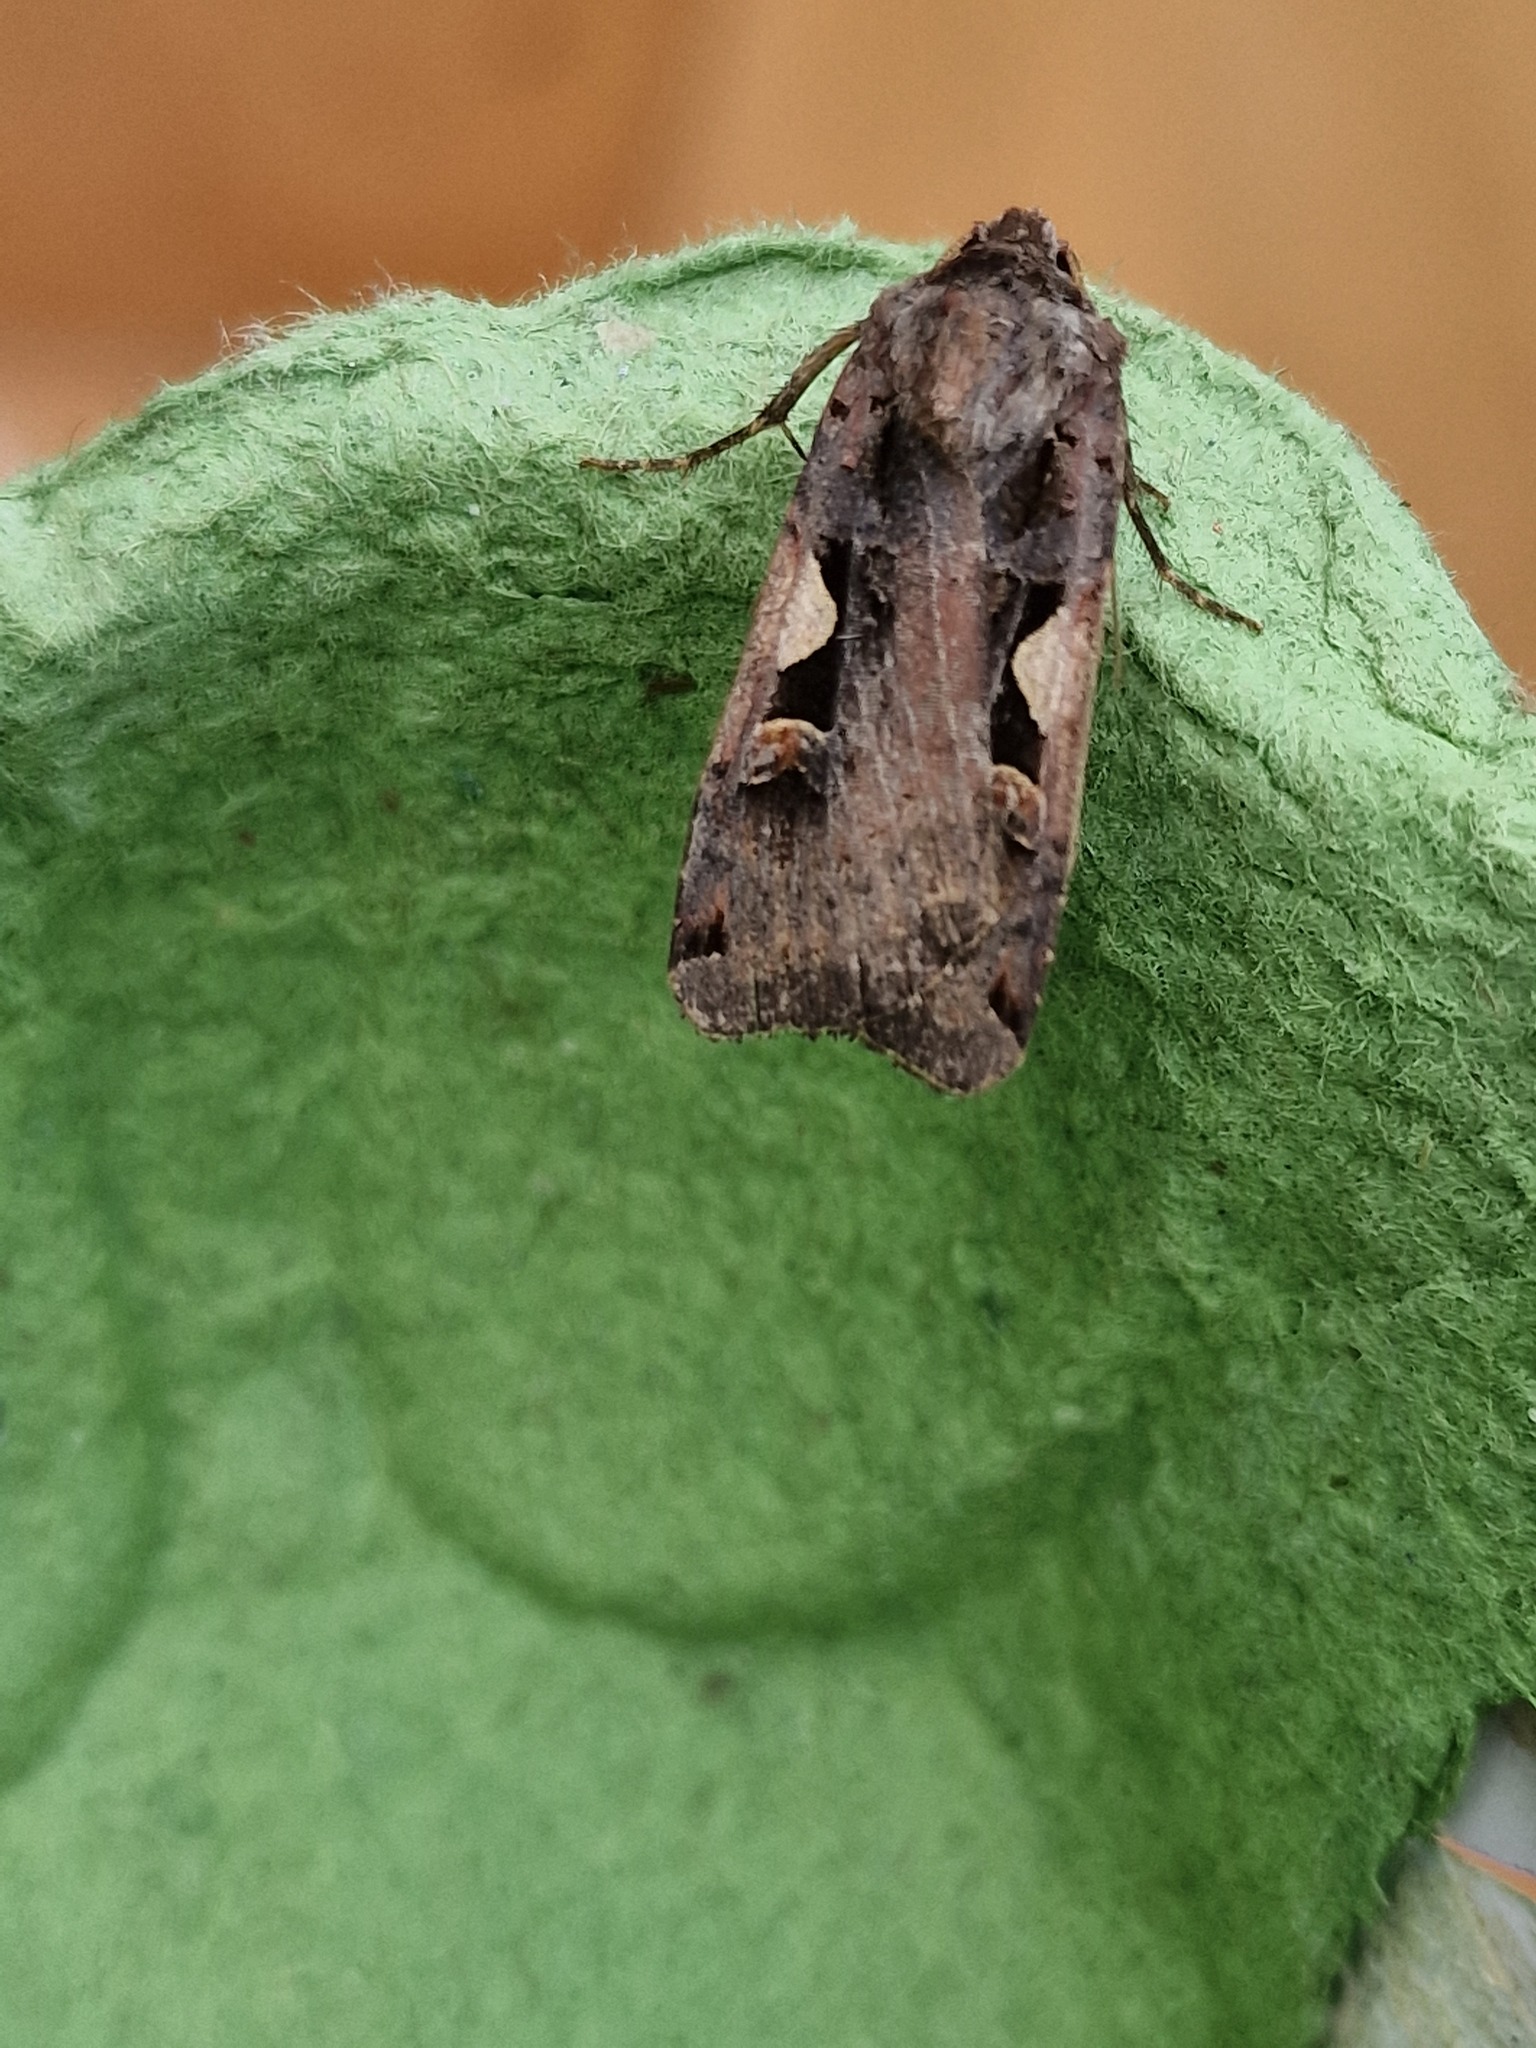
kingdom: Animalia
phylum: Arthropoda
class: Insecta
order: Lepidoptera
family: Noctuidae
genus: Xestia
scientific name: Xestia c-nigrum
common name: Setaceous hebrew character
